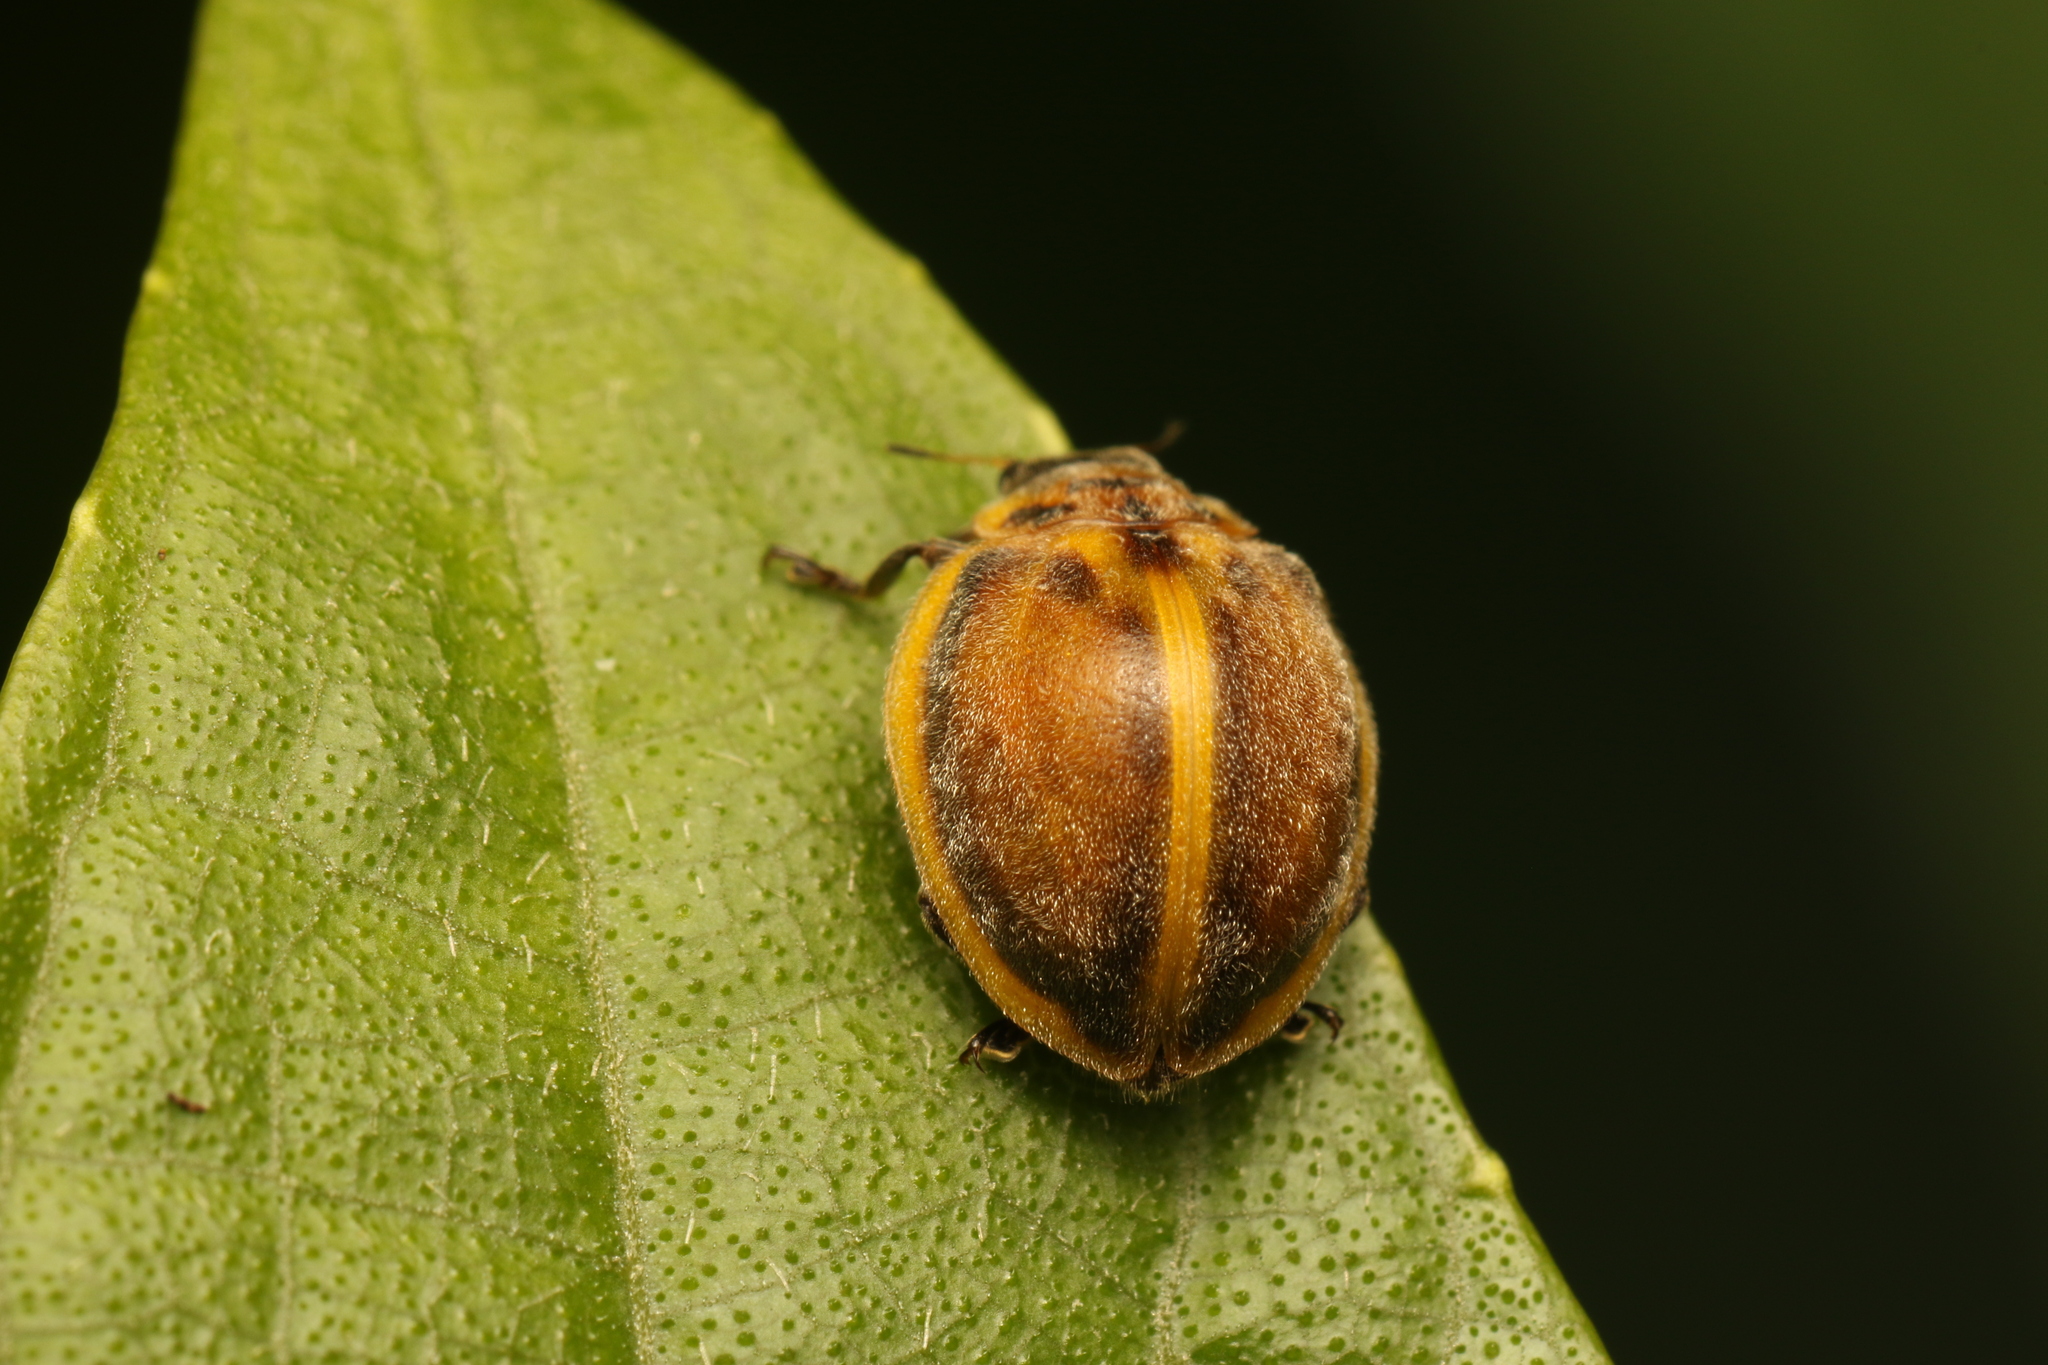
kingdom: Animalia
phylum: Arthropoda
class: Insecta
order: Coleoptera
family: Coccinellidae
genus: Epilachna
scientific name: Epilachna
